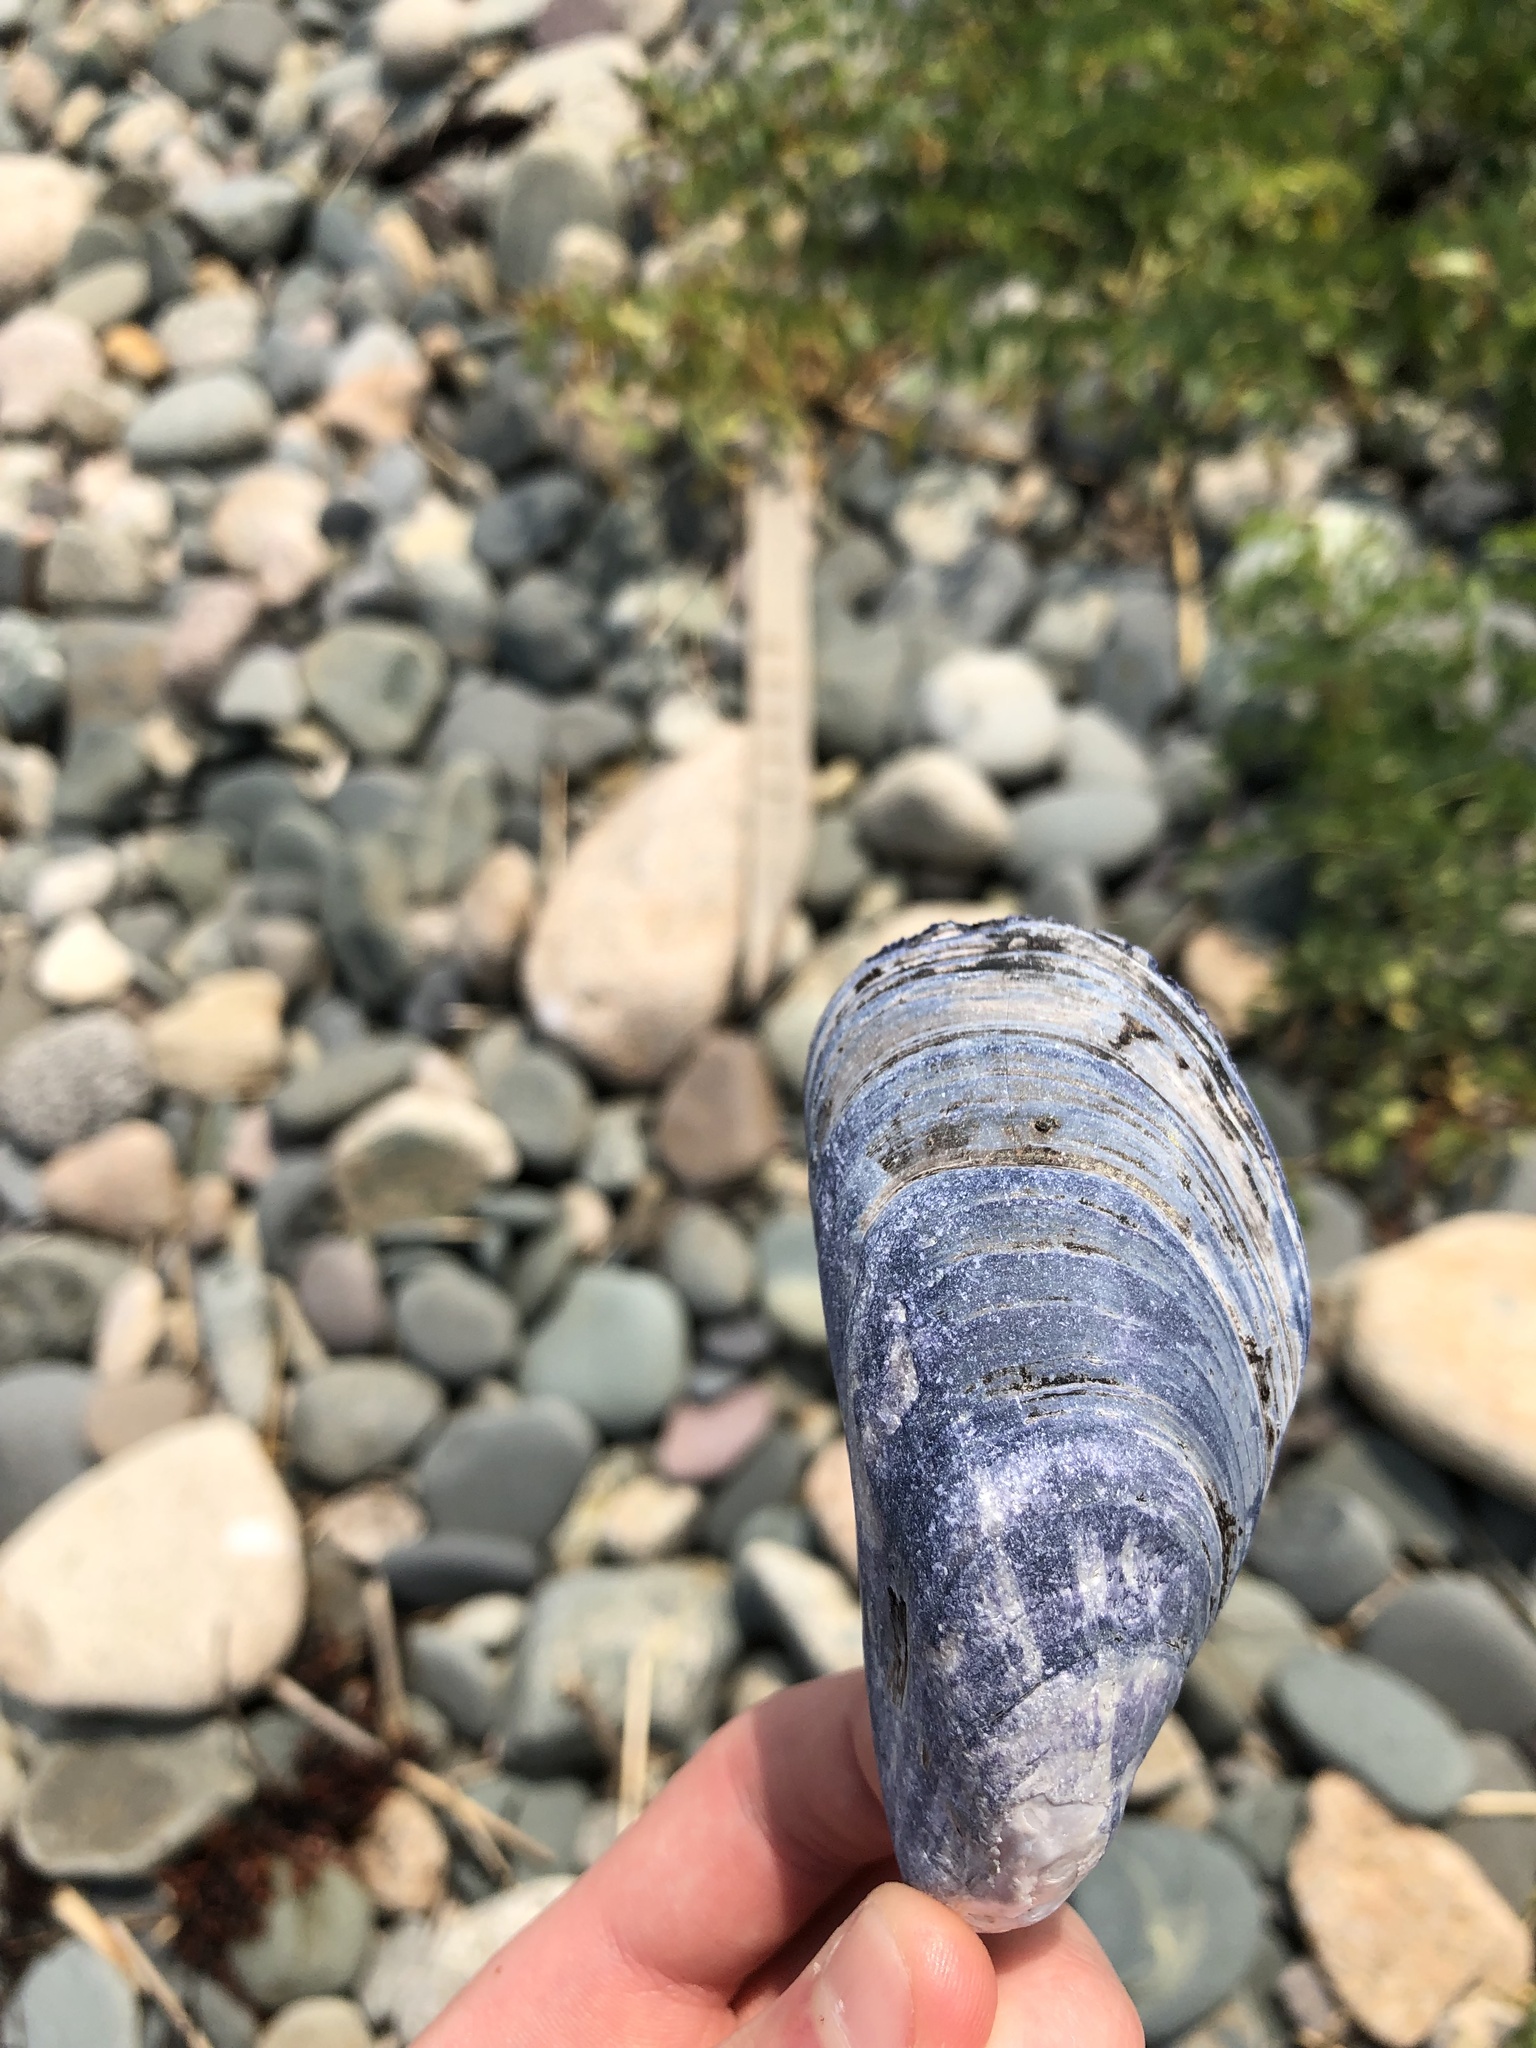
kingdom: Animalia
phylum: Mollusca
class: Bivalvia
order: Mytilida
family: Mytilidae
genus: Mytilus
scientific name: Mytilus edulis
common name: Blue mussel
